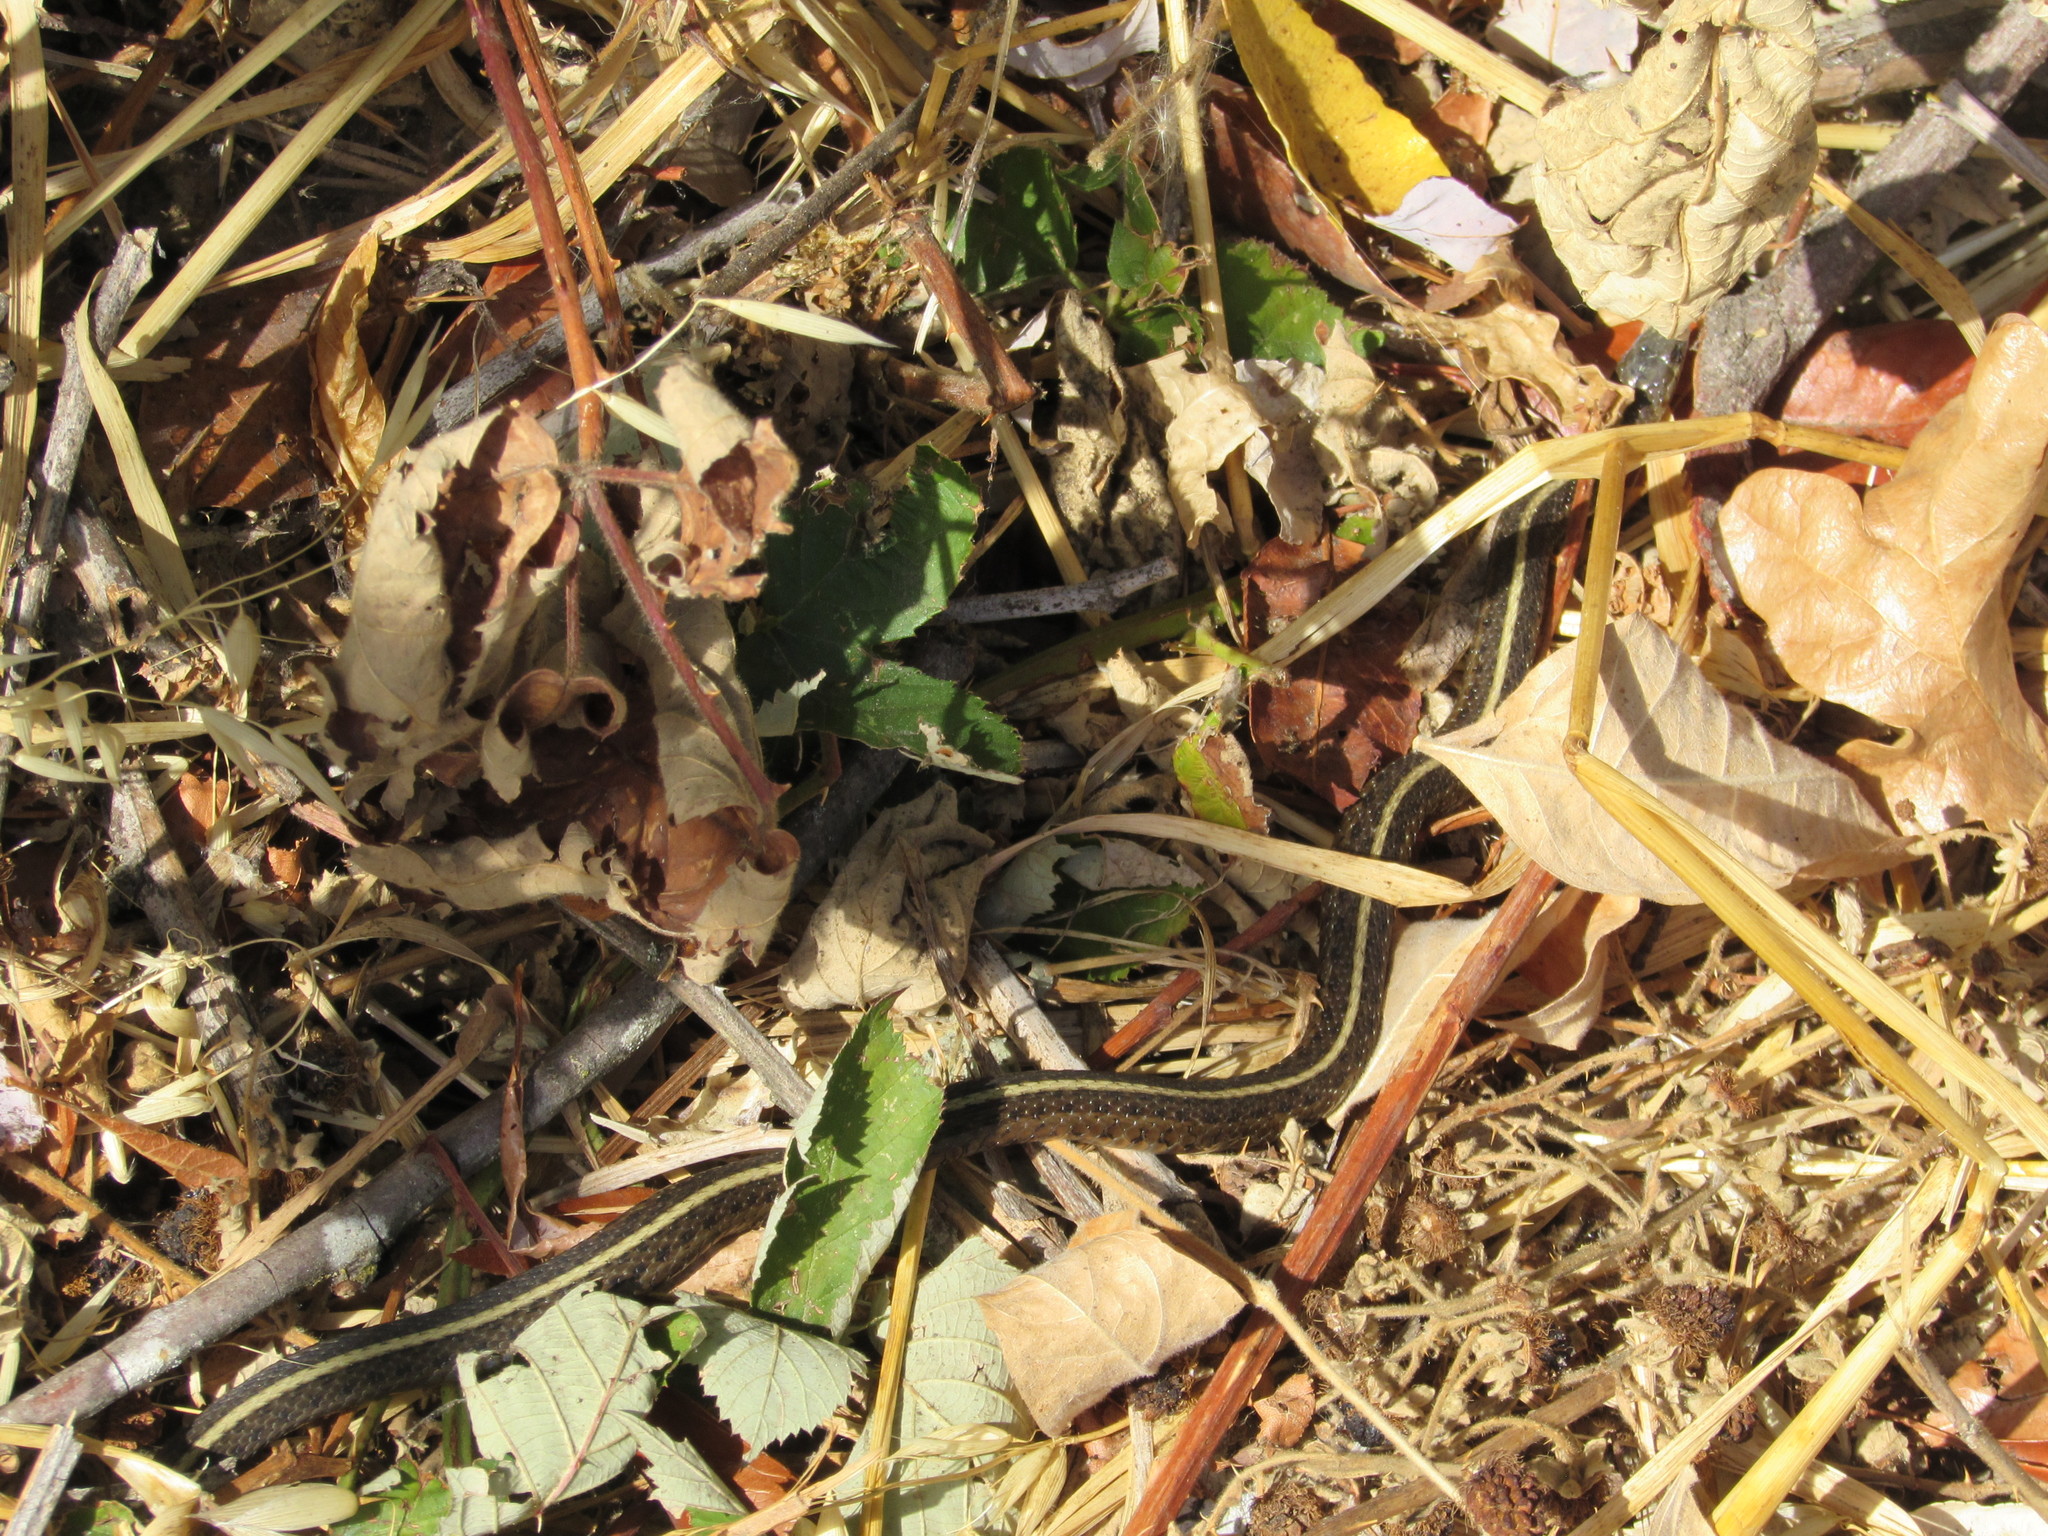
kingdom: Animalia
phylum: Chordata
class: Squamata
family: Colubridae
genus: Thamnophis
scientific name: Thamnophis ordinoides
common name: Northwestern garter snake
